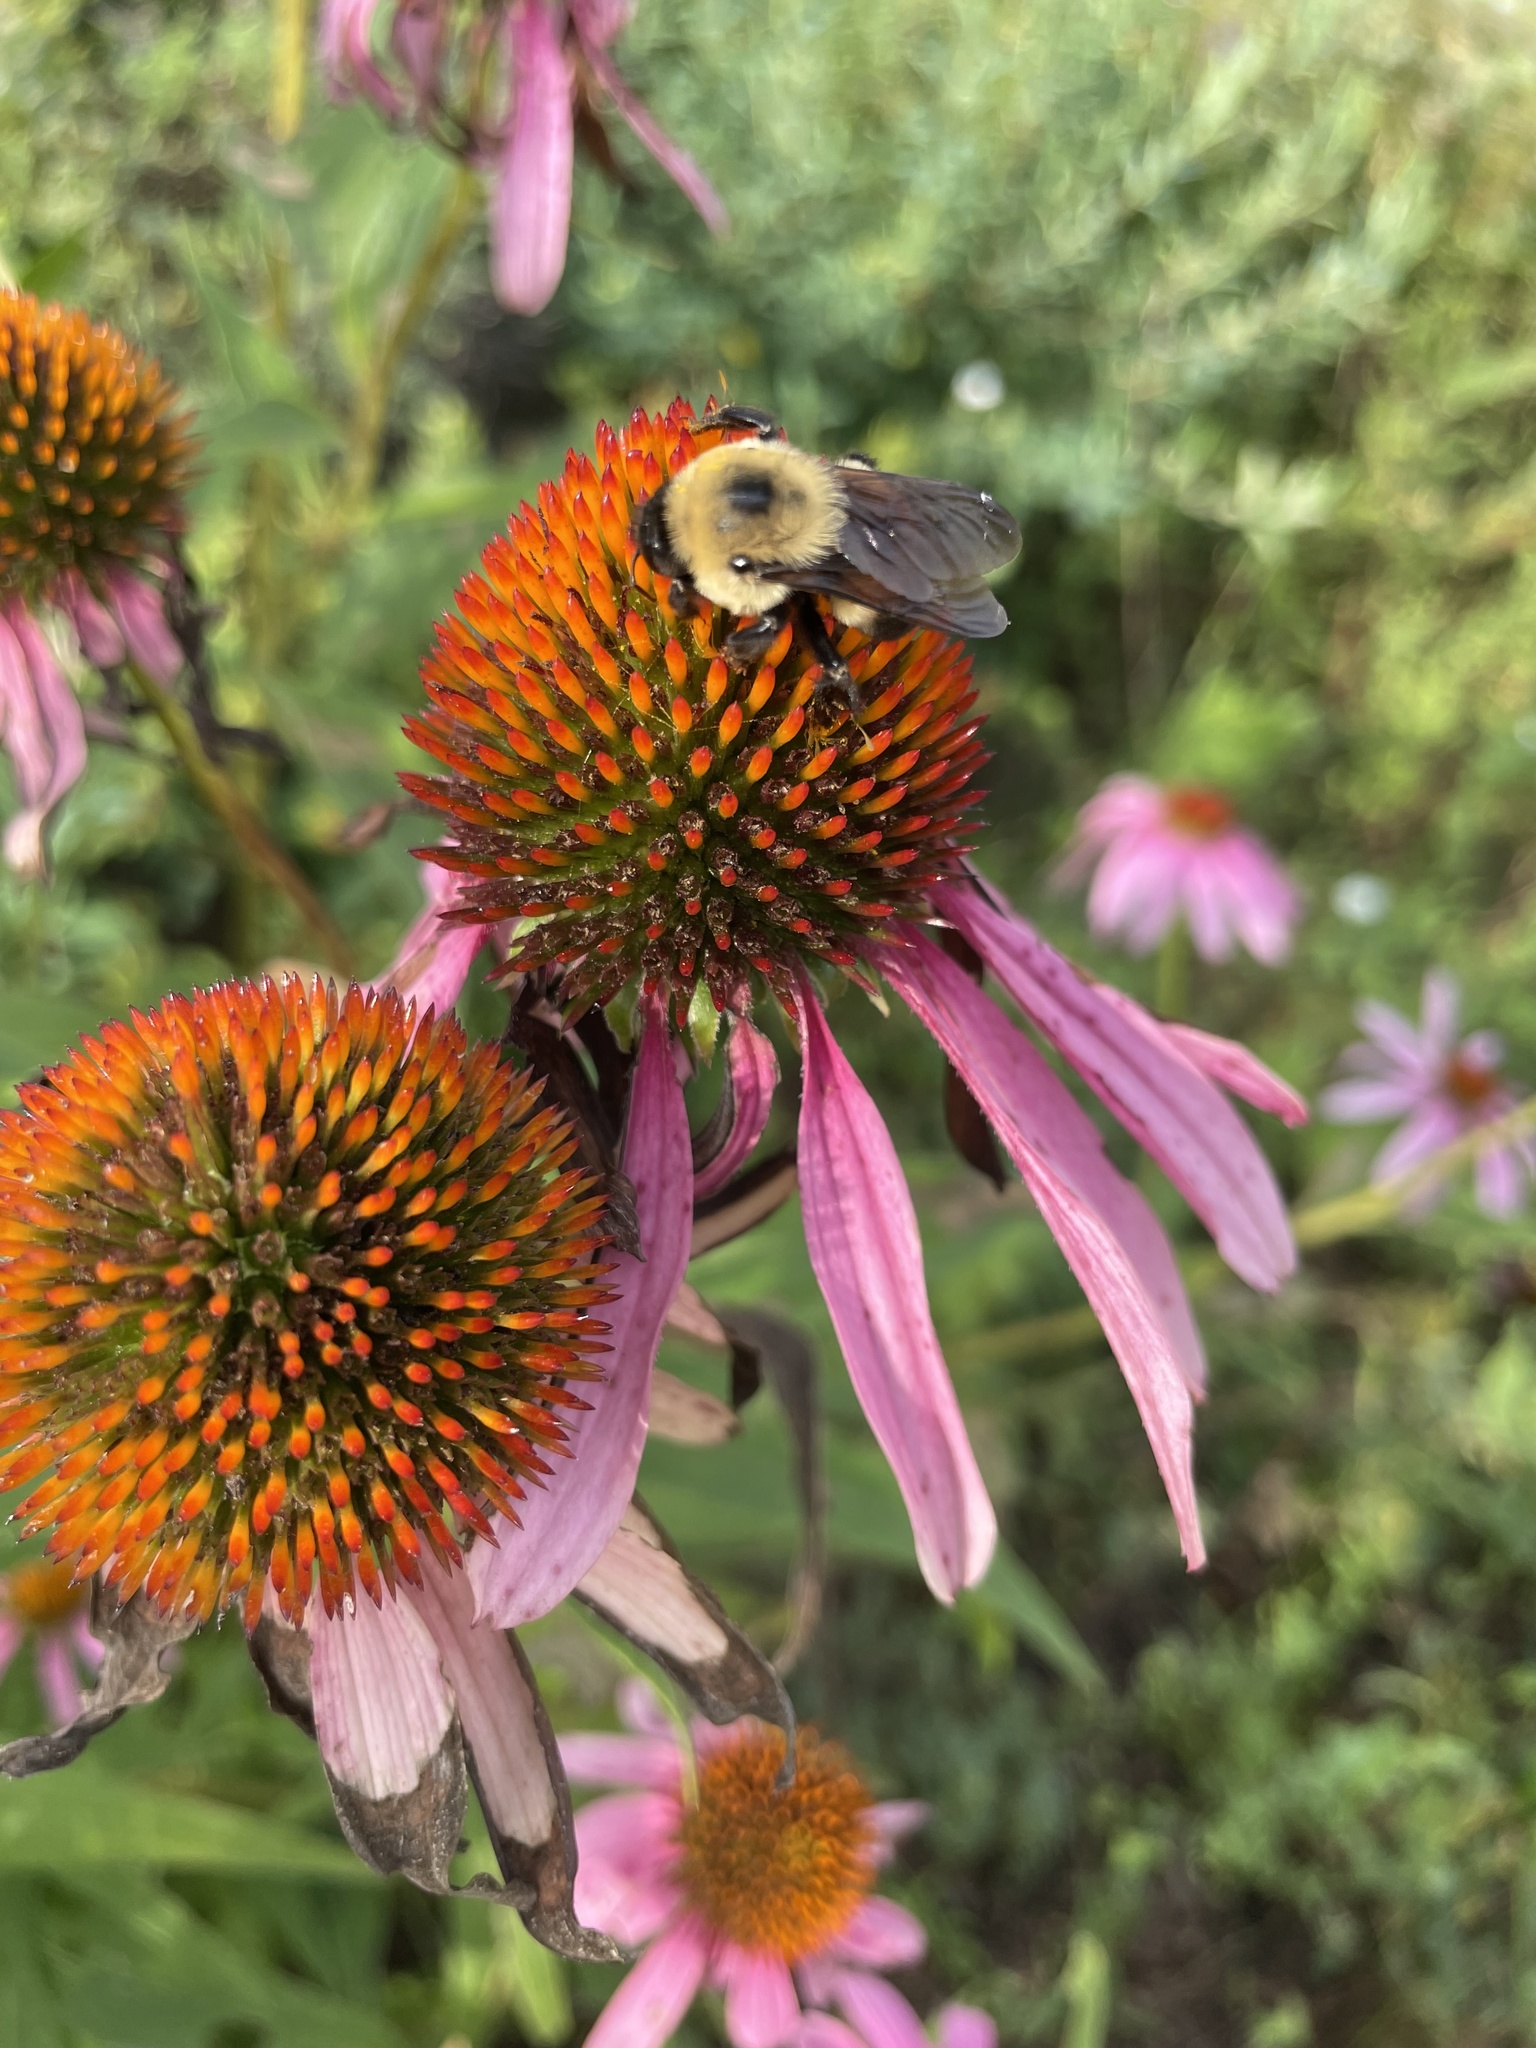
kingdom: Animalia
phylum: Arthropoda
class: Insecta
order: Hymenoptera
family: Apidae
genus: Bombus
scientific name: Bombus griseocollis
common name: Brown-belted bumble bee
